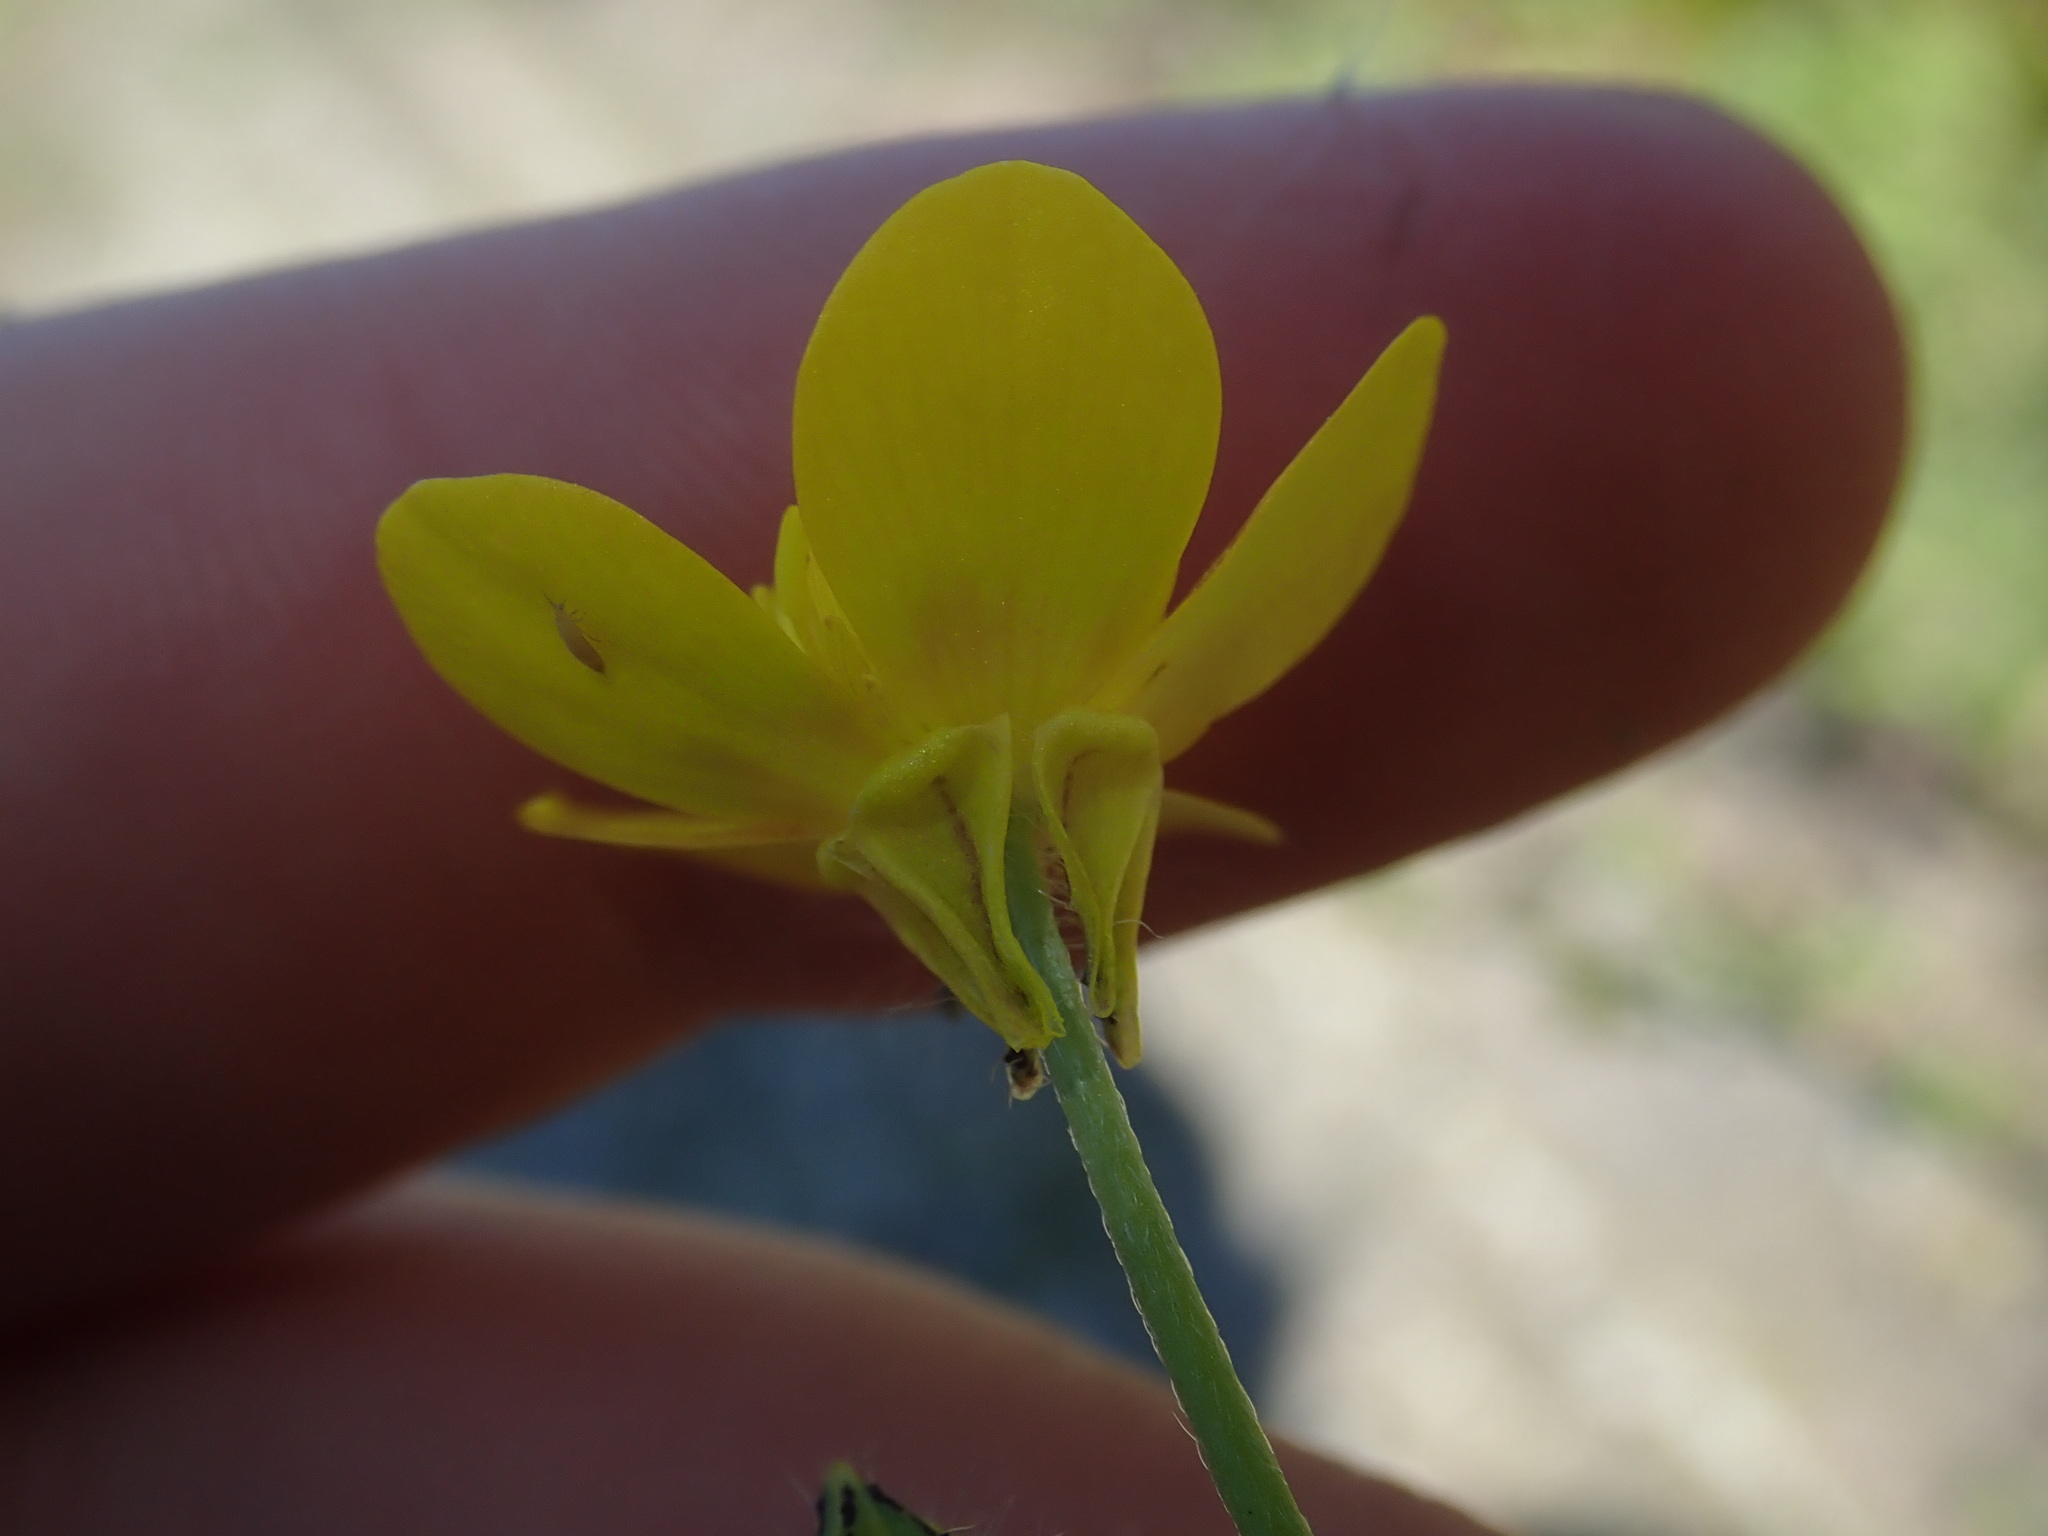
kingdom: Plantae
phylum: Tracheophyta
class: Magnoliopsida
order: Ranunculales
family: Ranunculaceae
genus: Ranunculus
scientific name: Ranunculus sardous
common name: Hairy buttercup
